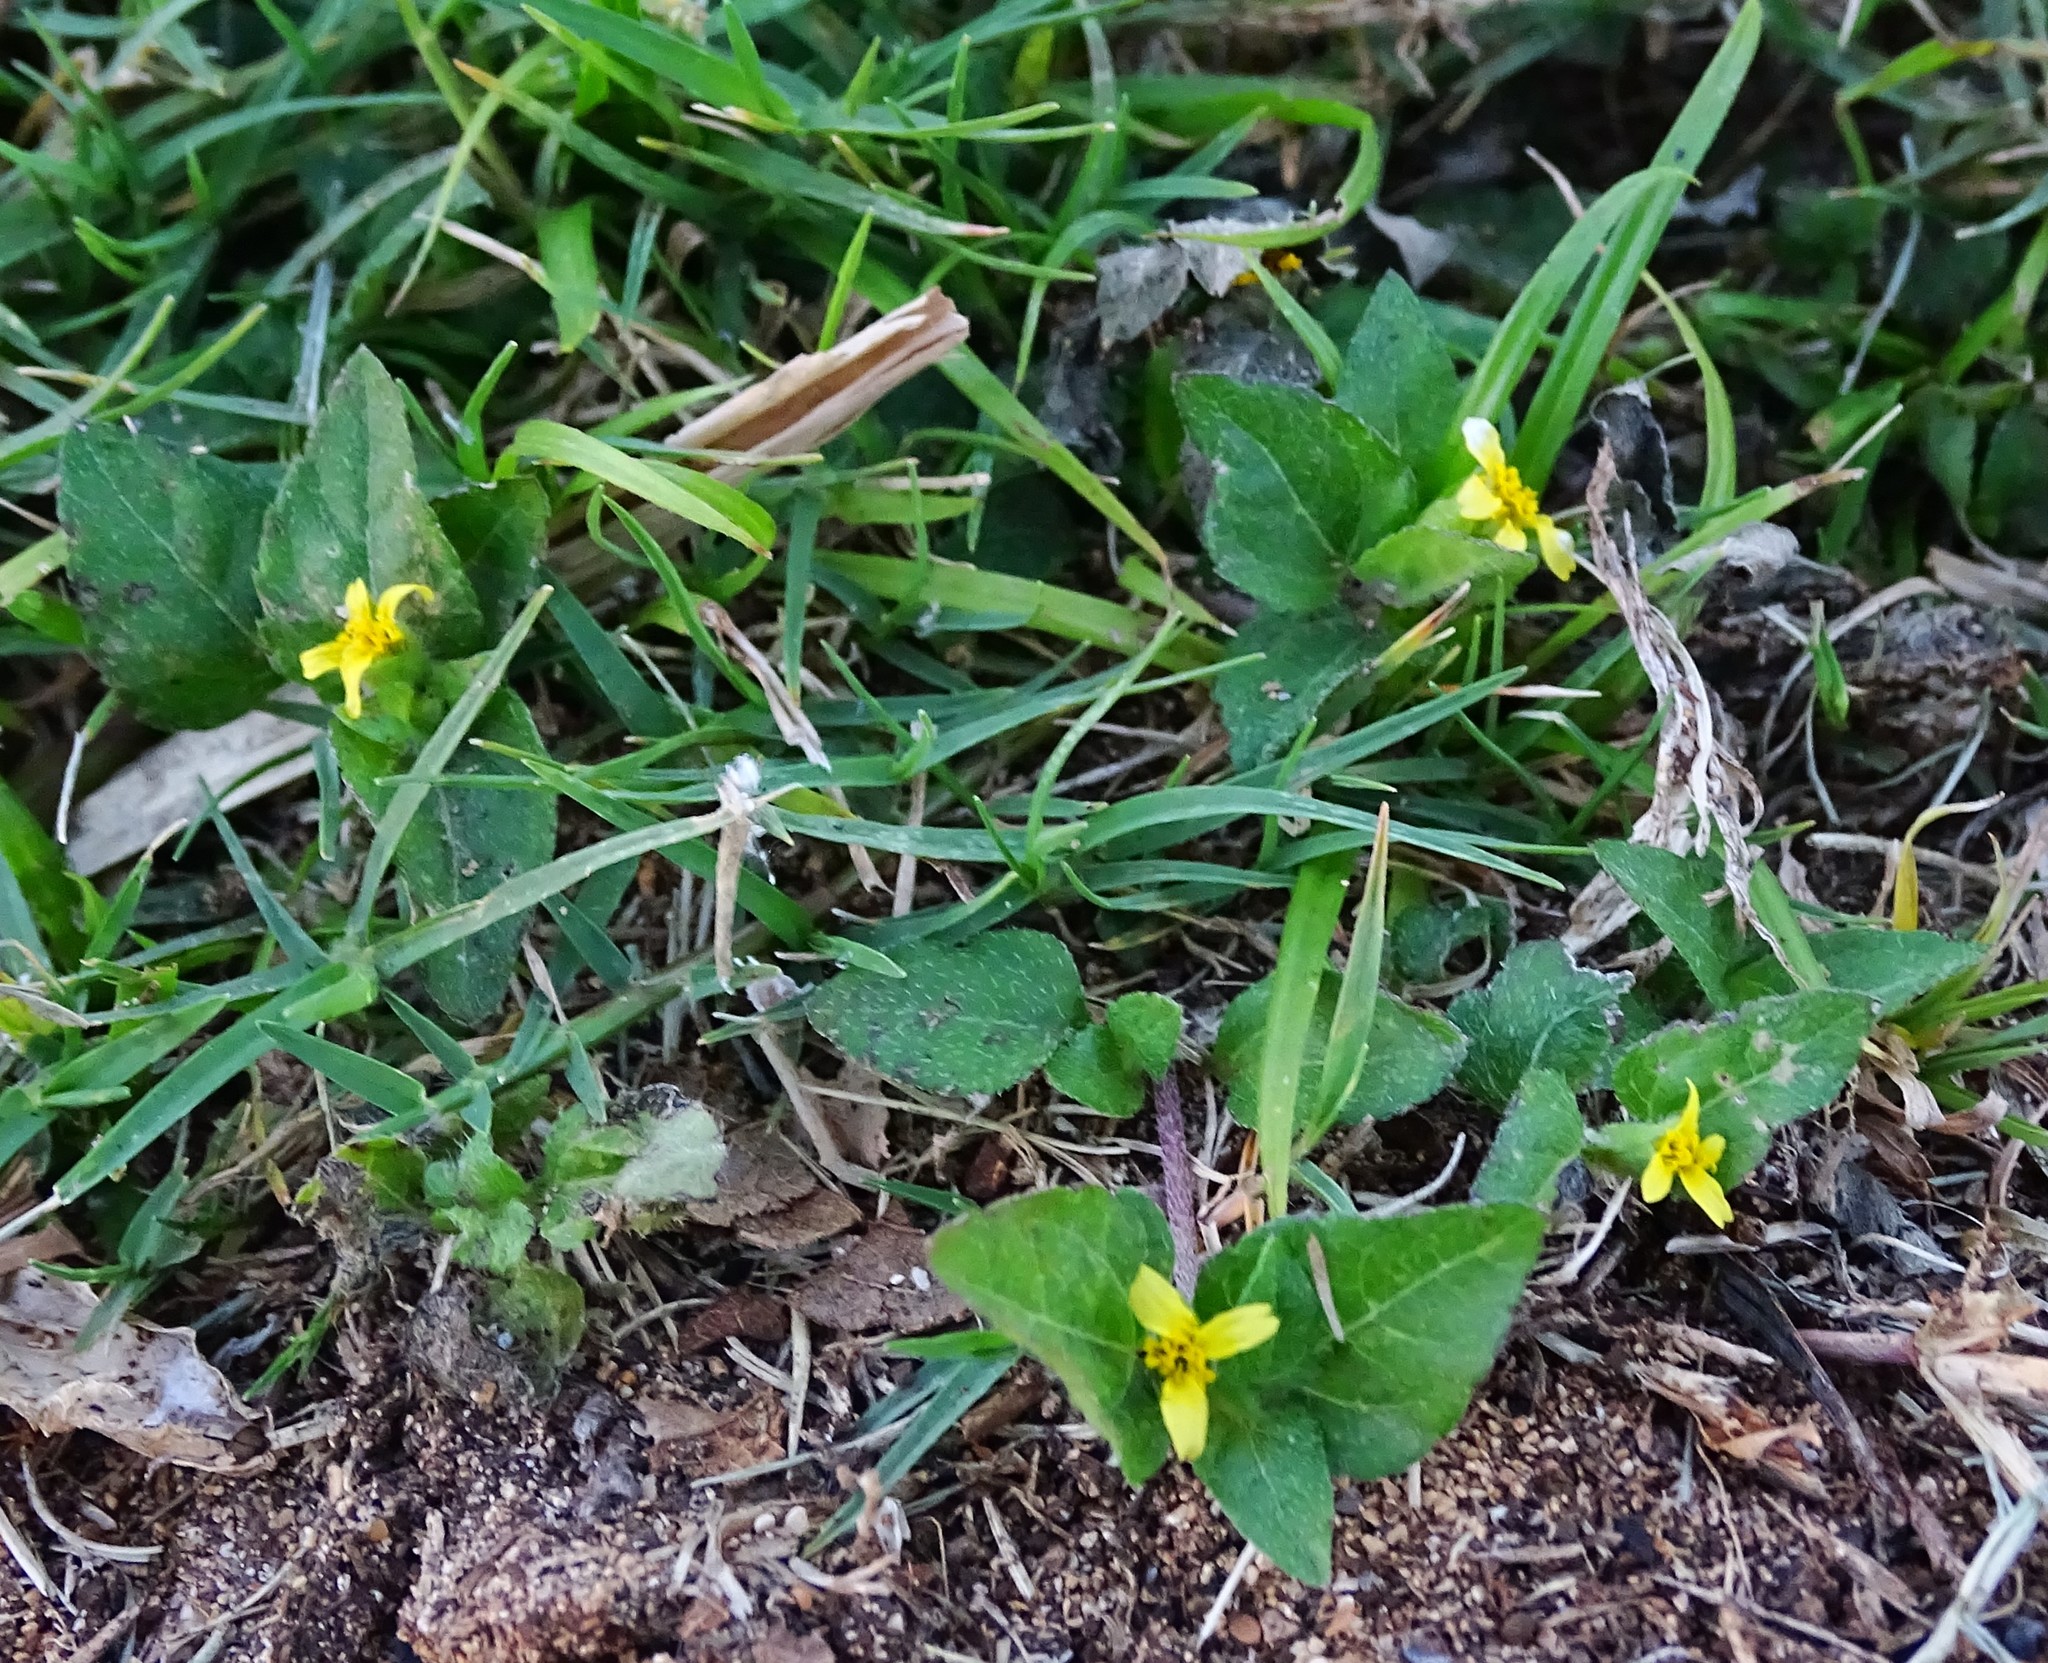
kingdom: Plantae
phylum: Tracheophyta
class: Magnoliopsida
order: Asterales
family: Asteraceae
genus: Calyptocarpus
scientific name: Calyptocarpus vialis
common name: Straggler daisy
